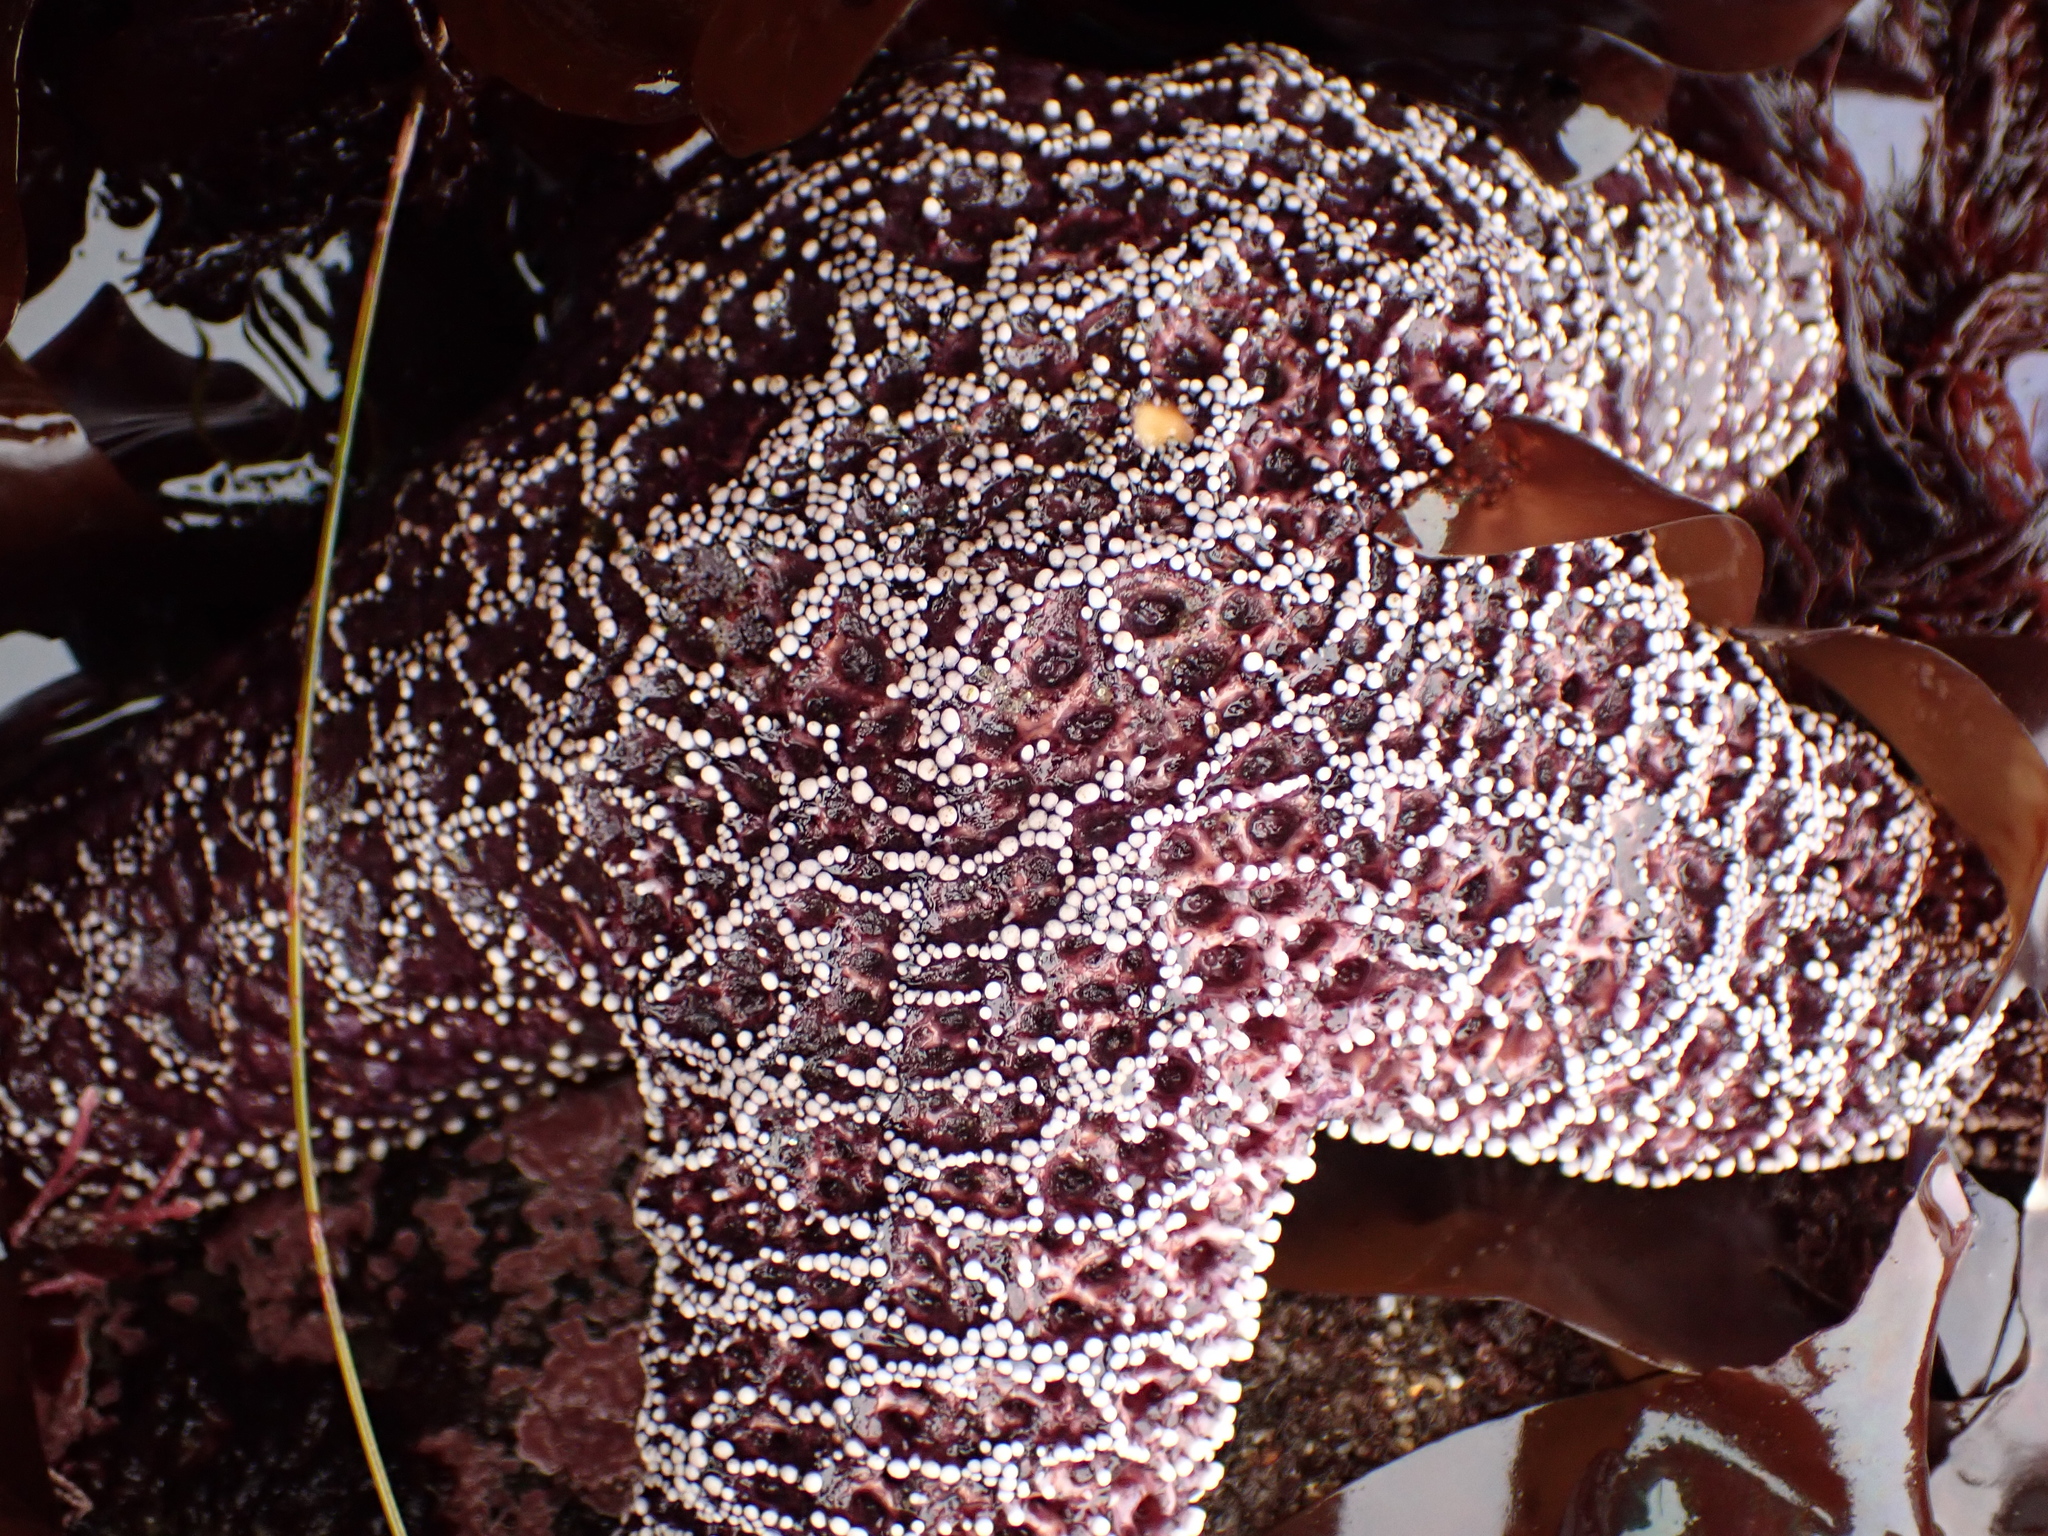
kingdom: Animalia
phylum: Echinodermata
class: Asteroidea
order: Forcipulatida
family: Asteriidae
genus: Pisaster
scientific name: Pisaster ochraceus
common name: Ochre stars
